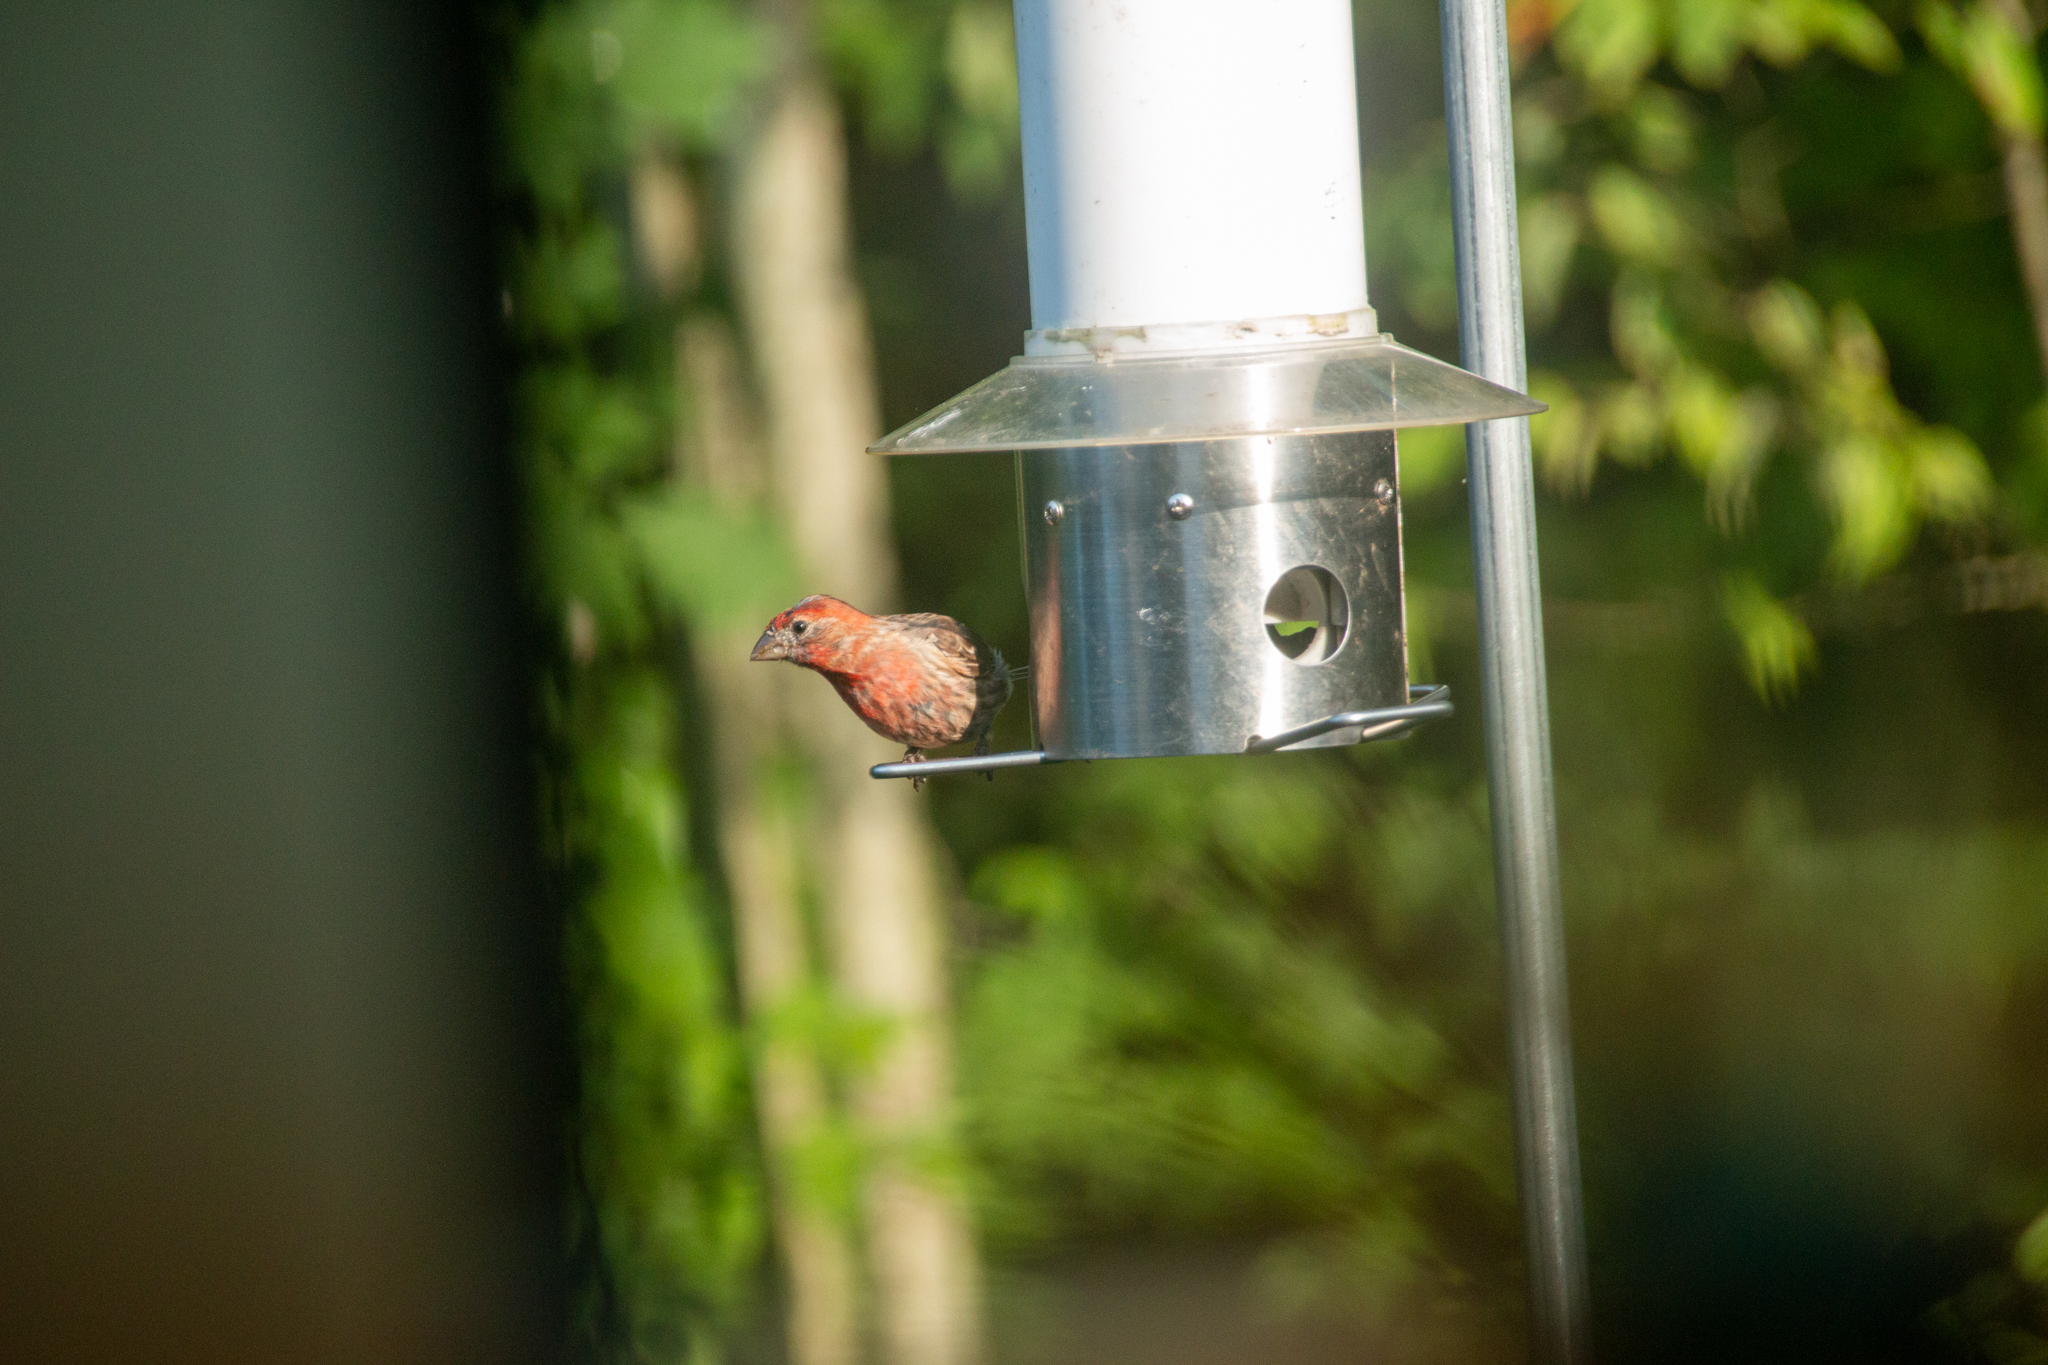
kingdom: Animalia
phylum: Chordata
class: Aves
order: Passeriformes
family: Fringillidae
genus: Haemorhous
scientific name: Haemorhous mexicanus
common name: House finch
